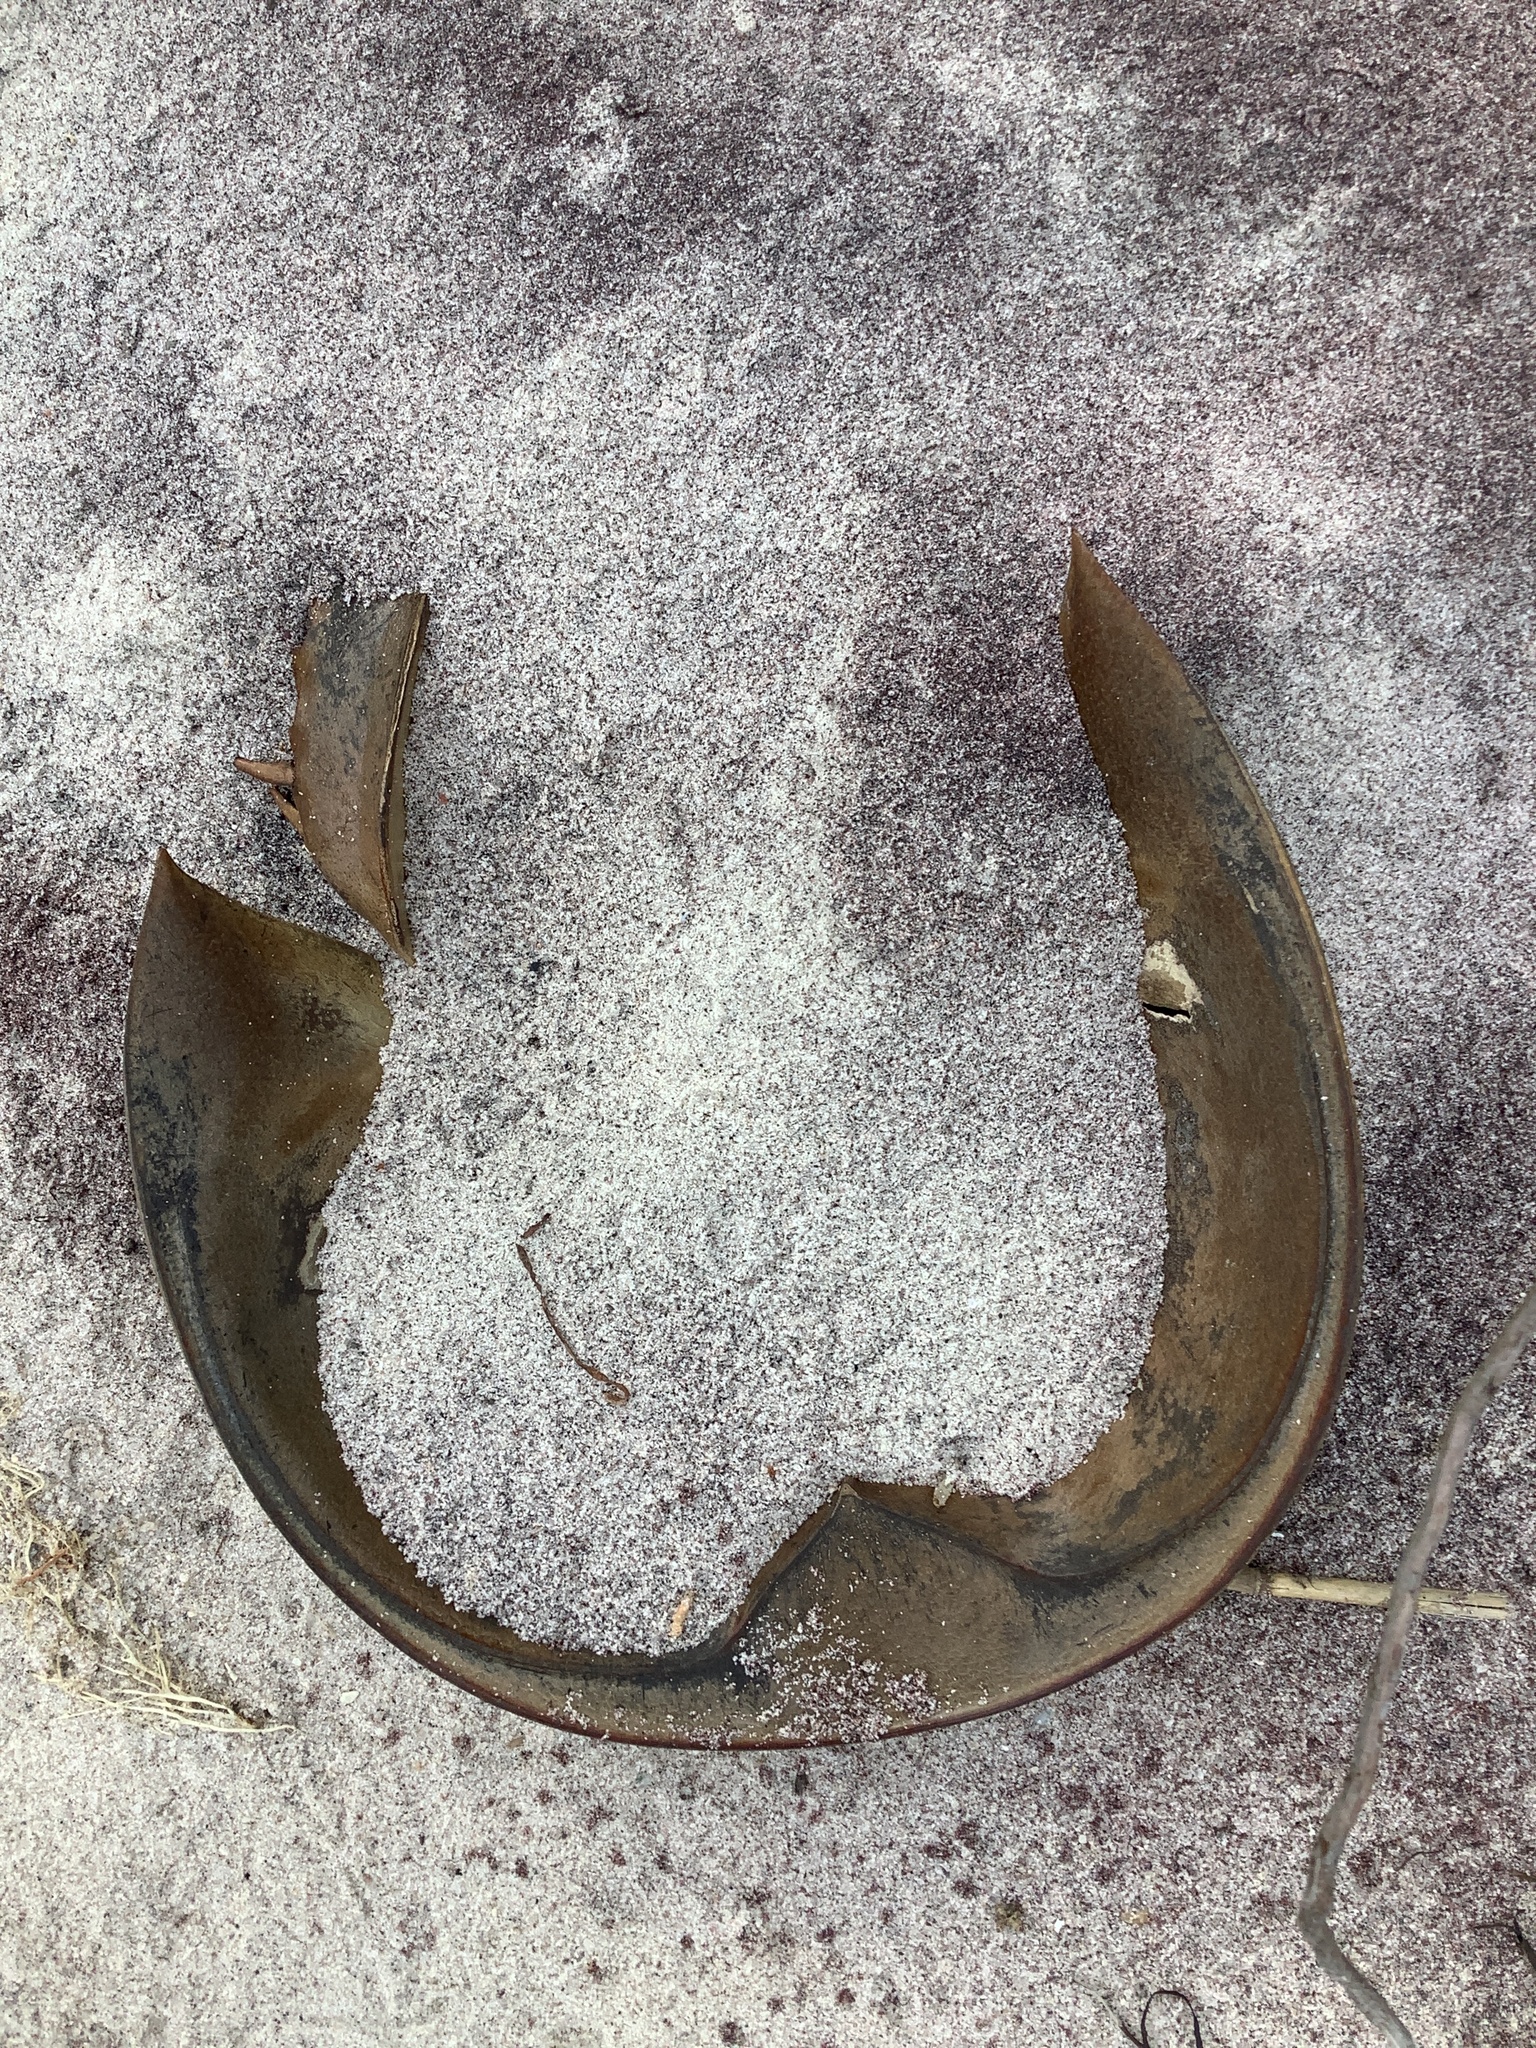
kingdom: Animalia
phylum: Arthropoda
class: Merostomata
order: Xiphosurida
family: Limulidae
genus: Limulus
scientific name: Limulus polyphemus
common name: Horseshoe crab
